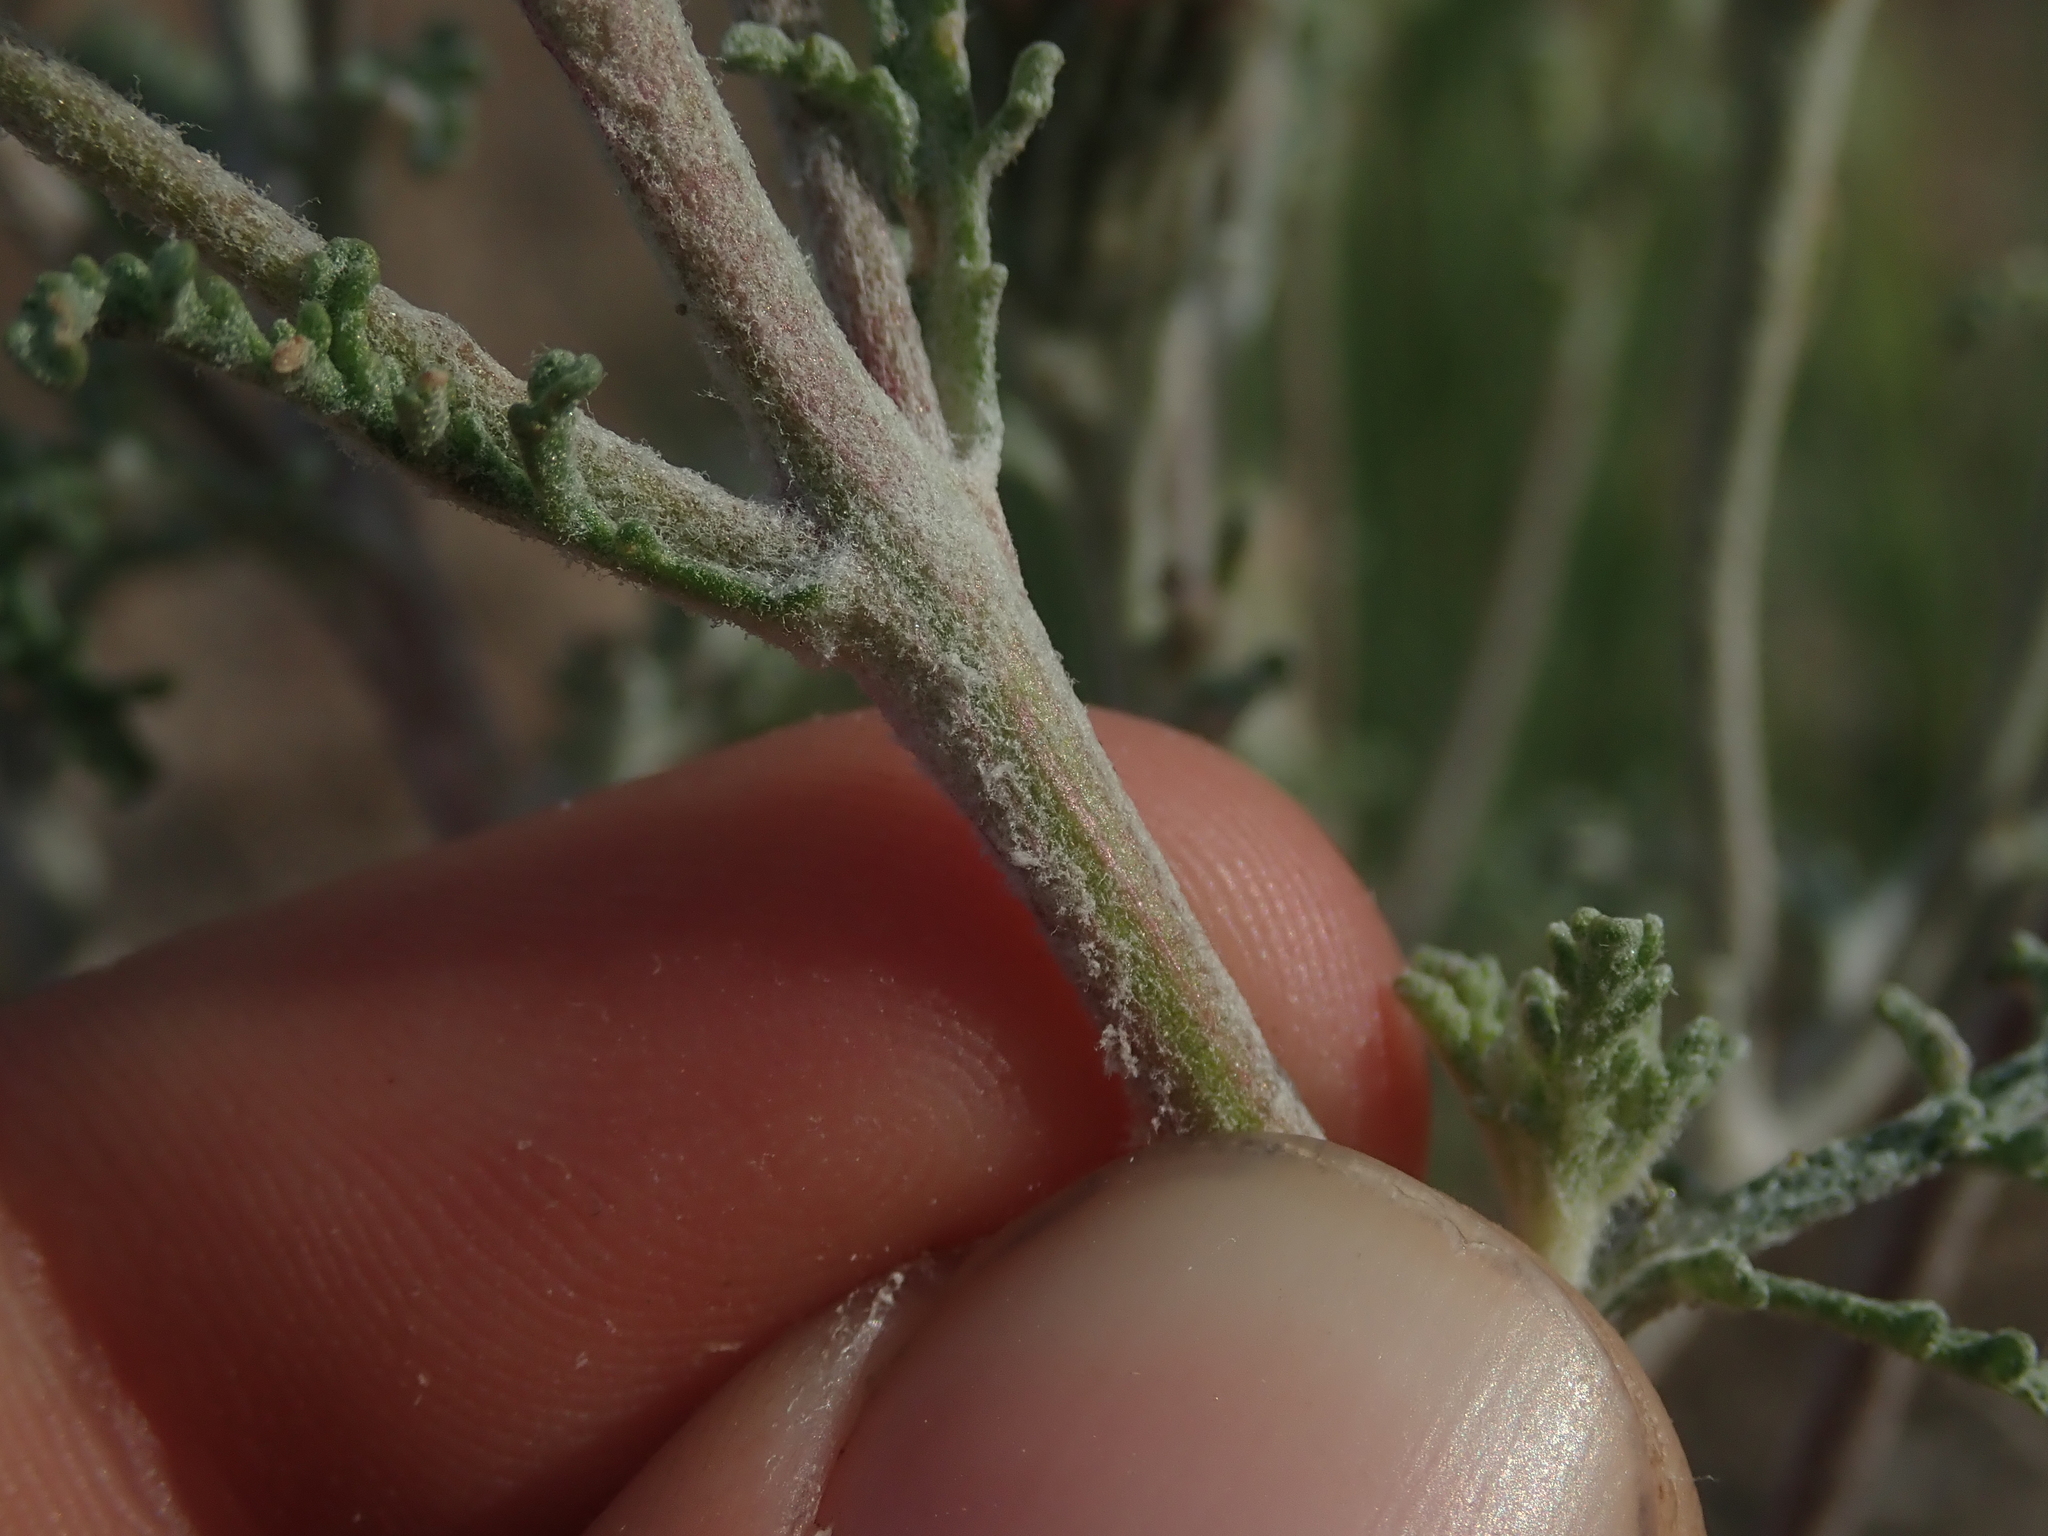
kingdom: Plantae
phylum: Tracheophyta
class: Magnoliopsida
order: Asterales
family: Asteraceae
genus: Chaenactis
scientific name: Chaenactis douglasii
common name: Hoary pincushion
